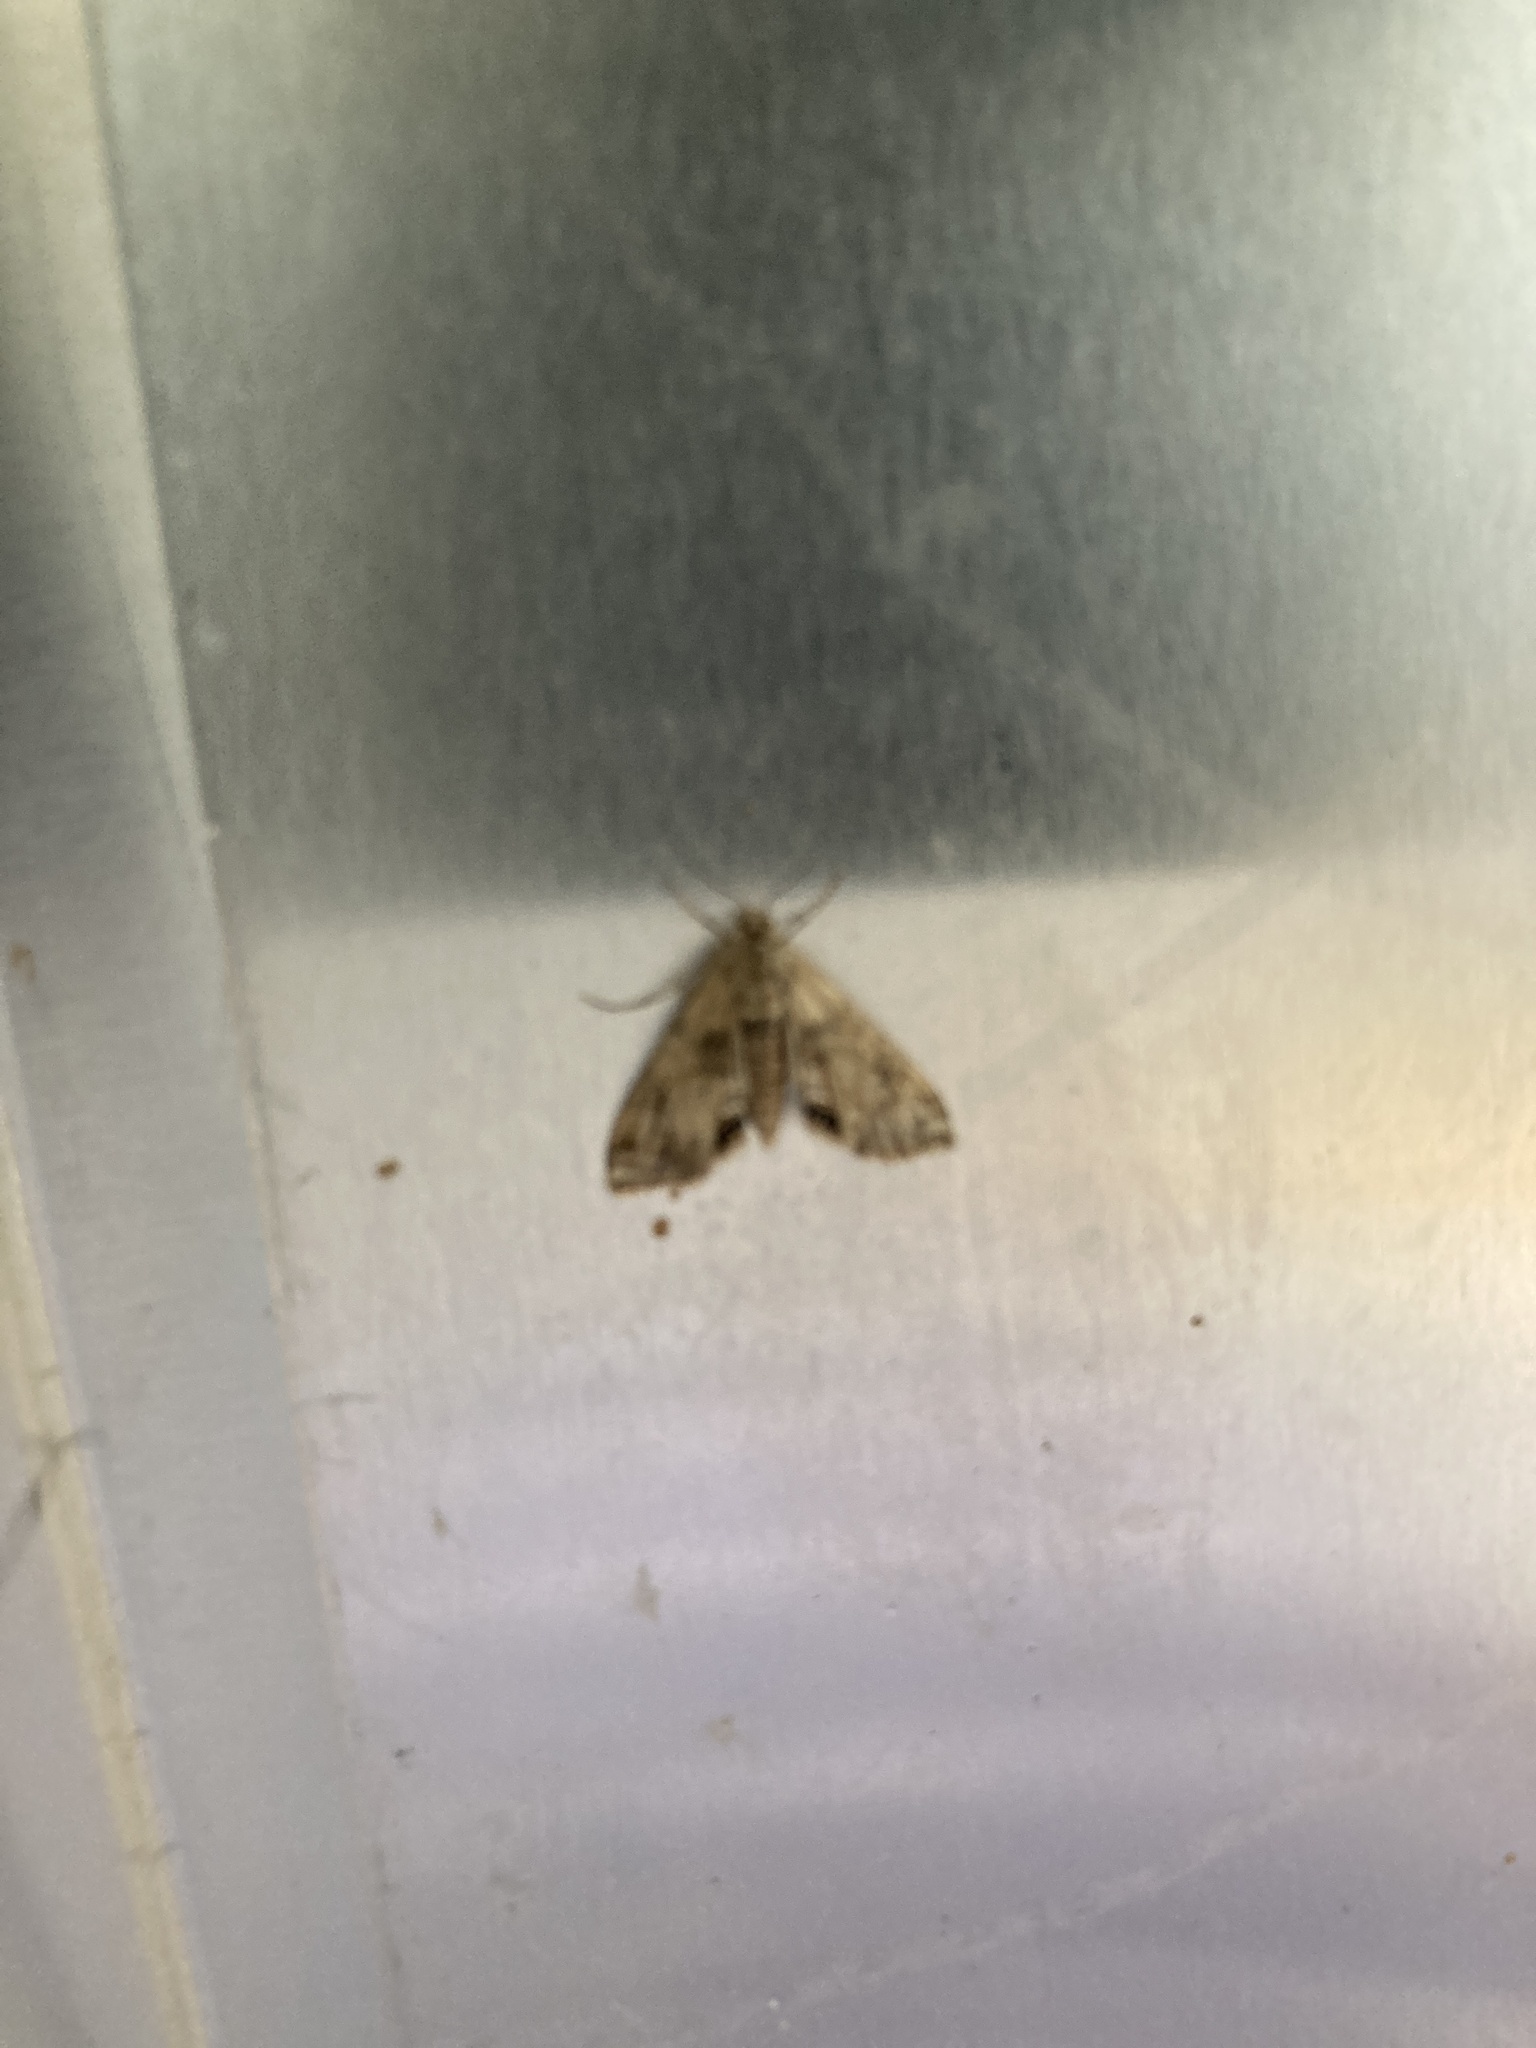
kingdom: Animalia
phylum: Arthropoda
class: Insecta
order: Lepidoptera
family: Crambidae
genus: Cataclysta
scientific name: Cataclysta lemnata
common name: Small china-mark
